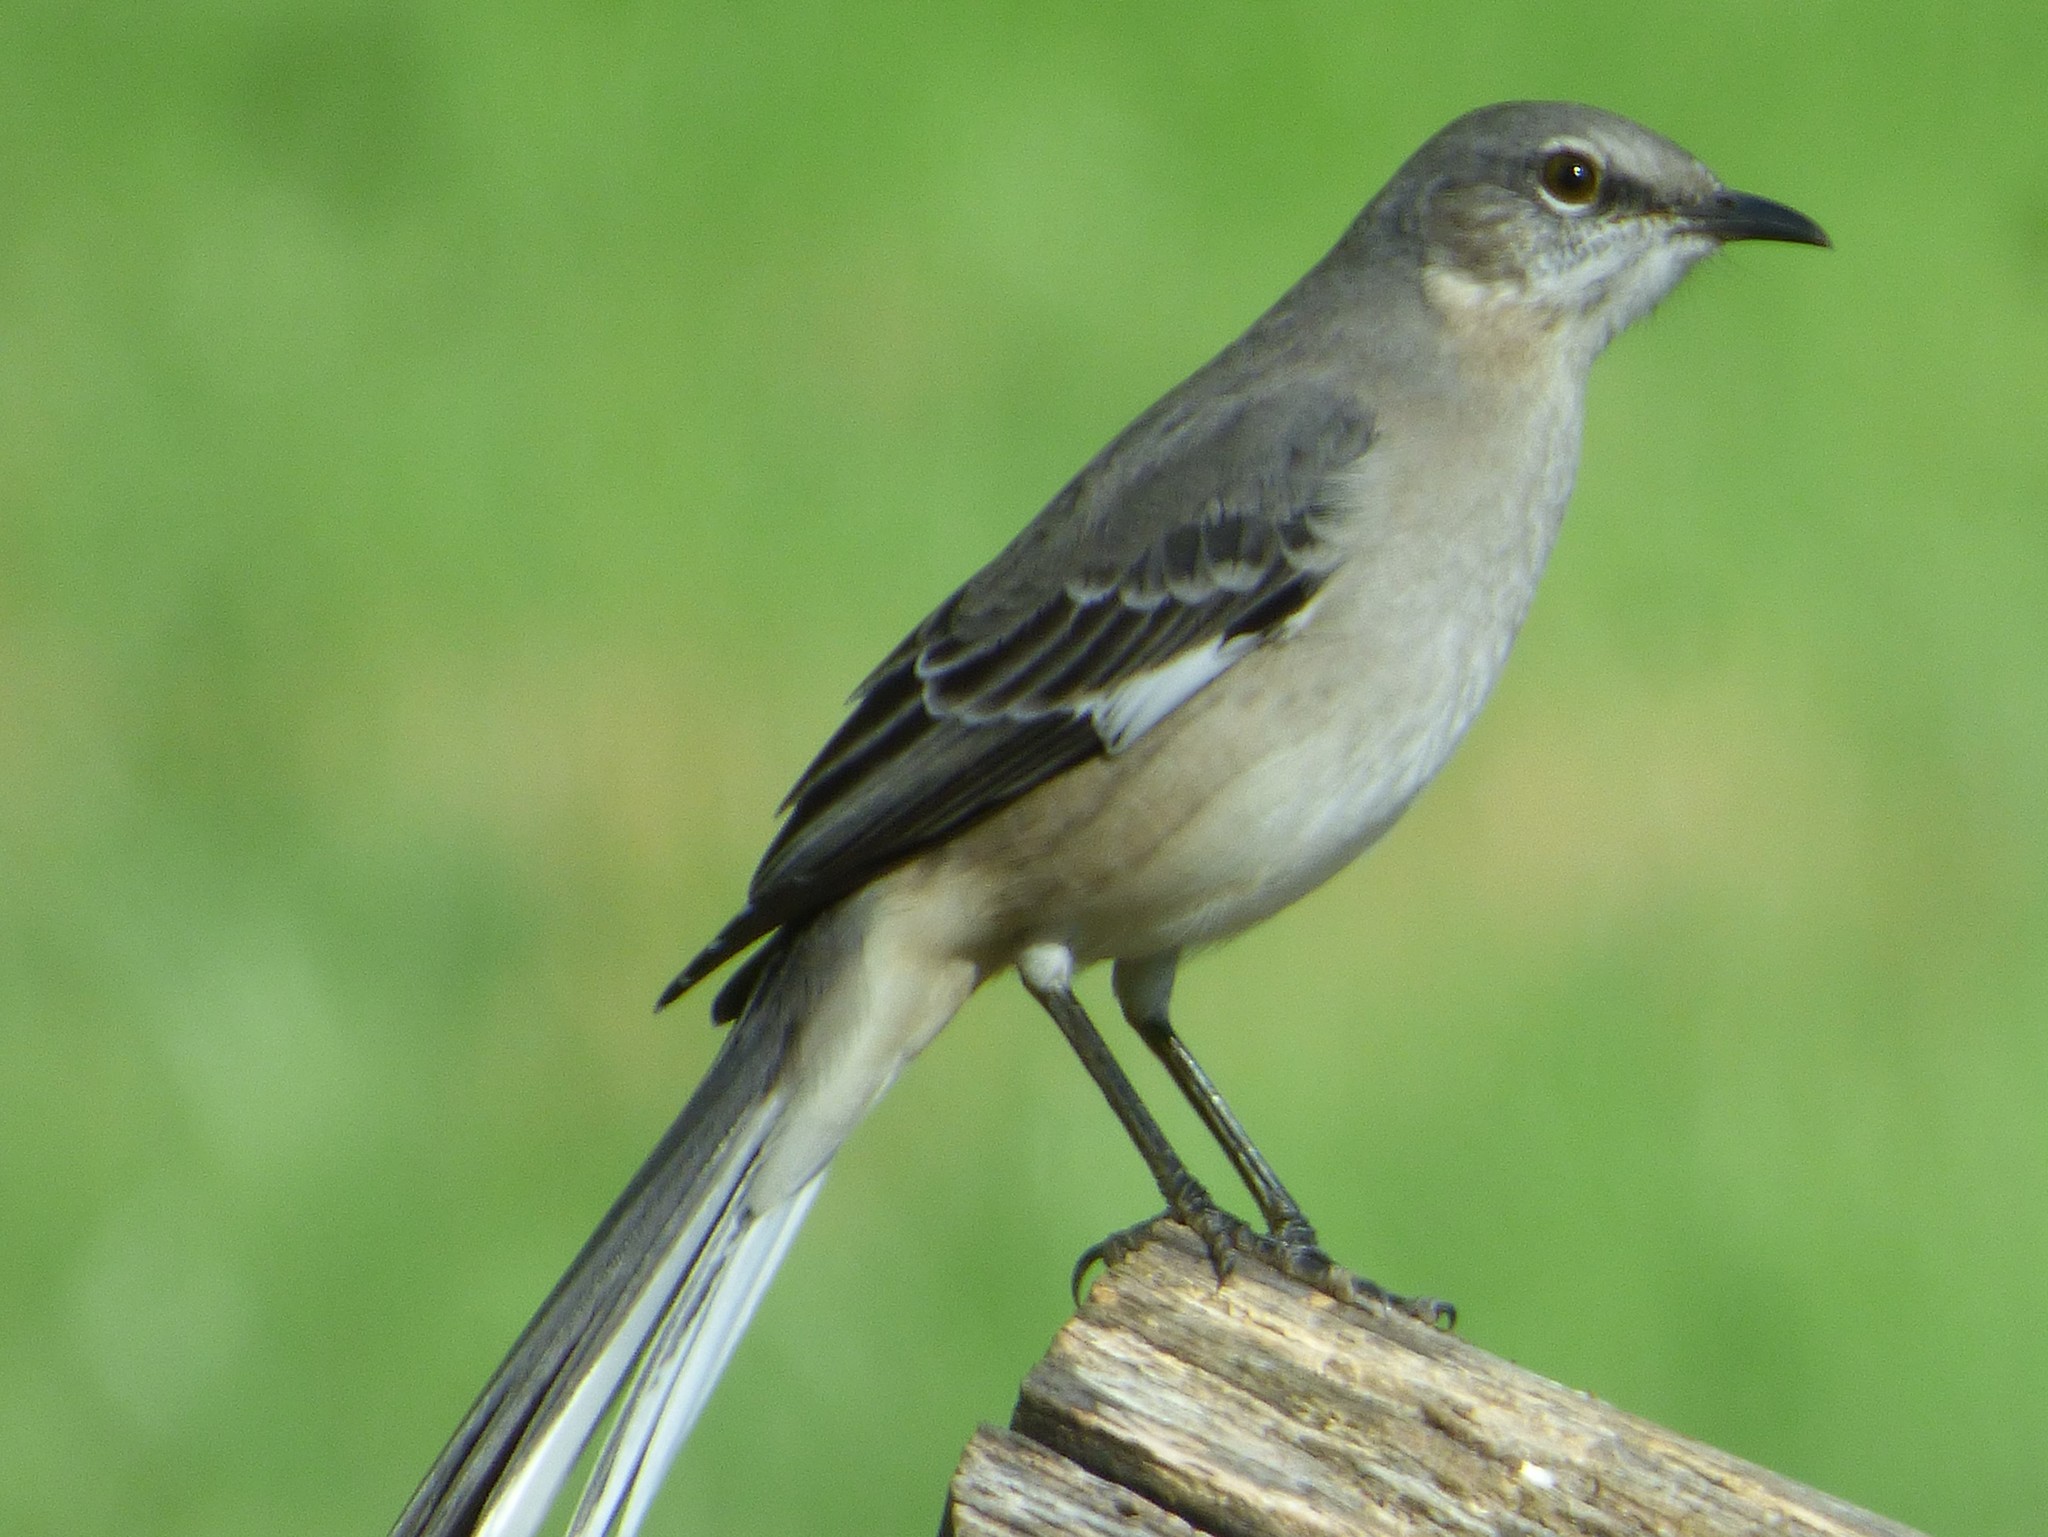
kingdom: Animalia
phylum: Chordata
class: Aves
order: Passeriformes
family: Mimidae
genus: Mimus
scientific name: Mimus polyglottos
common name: Northern mockingbird
